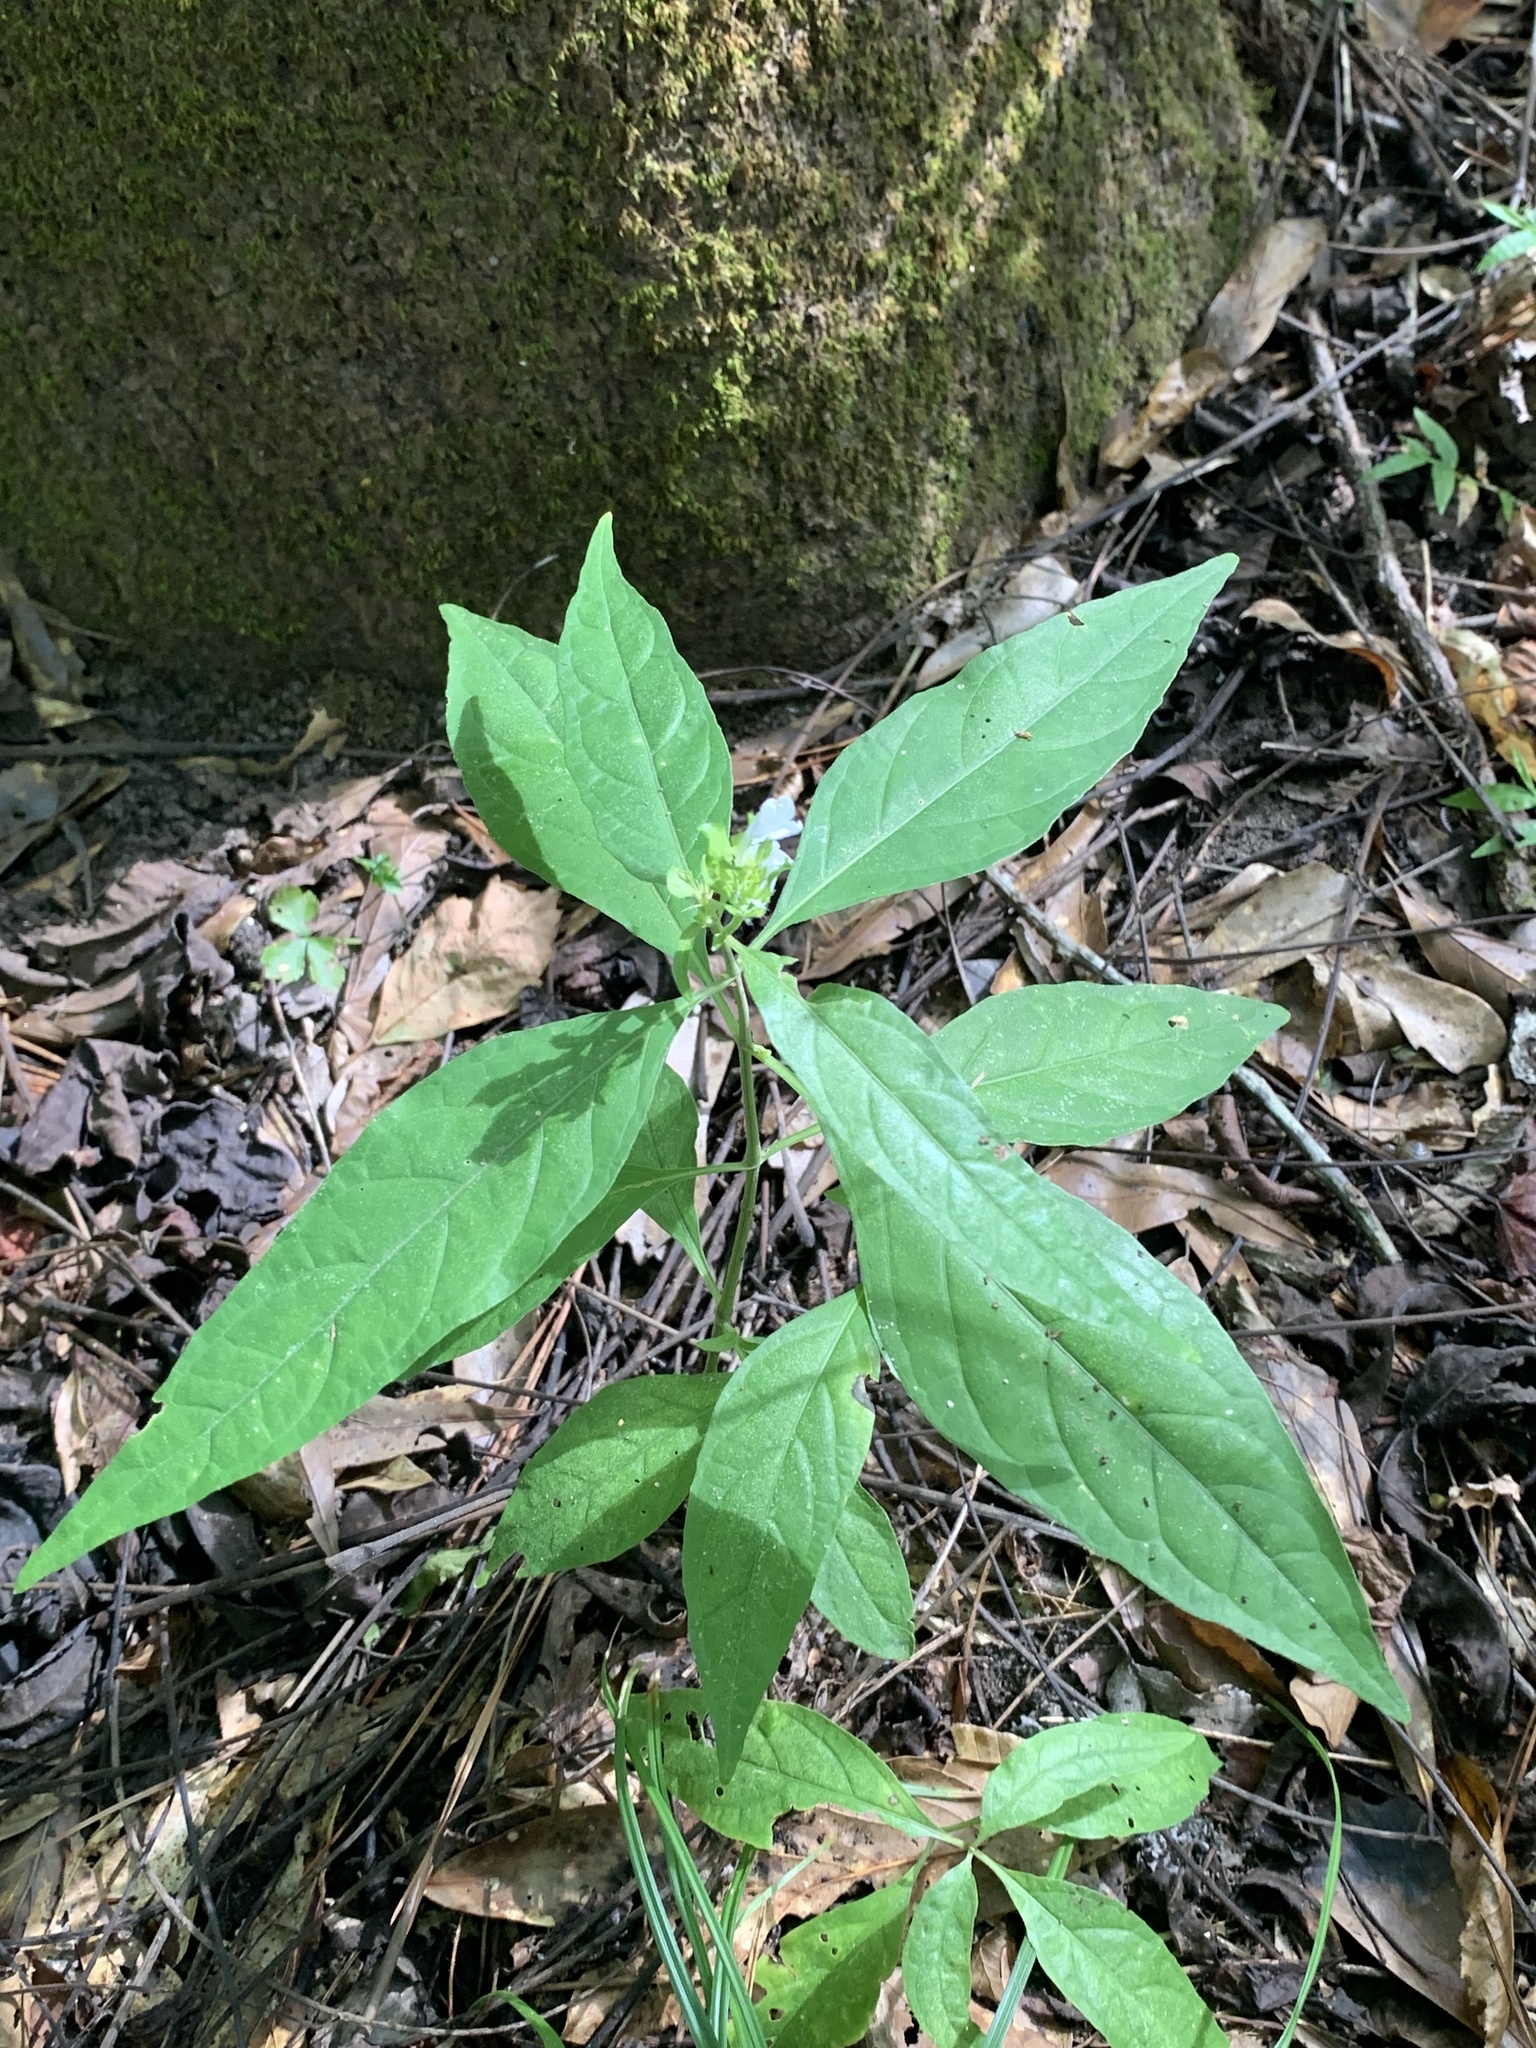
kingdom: Plantae
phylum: Tracheophyta
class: Magnoliopsida
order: Lamiales
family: Acanthaceae
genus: Yeatesia
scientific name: Yeatesia viridiflora
